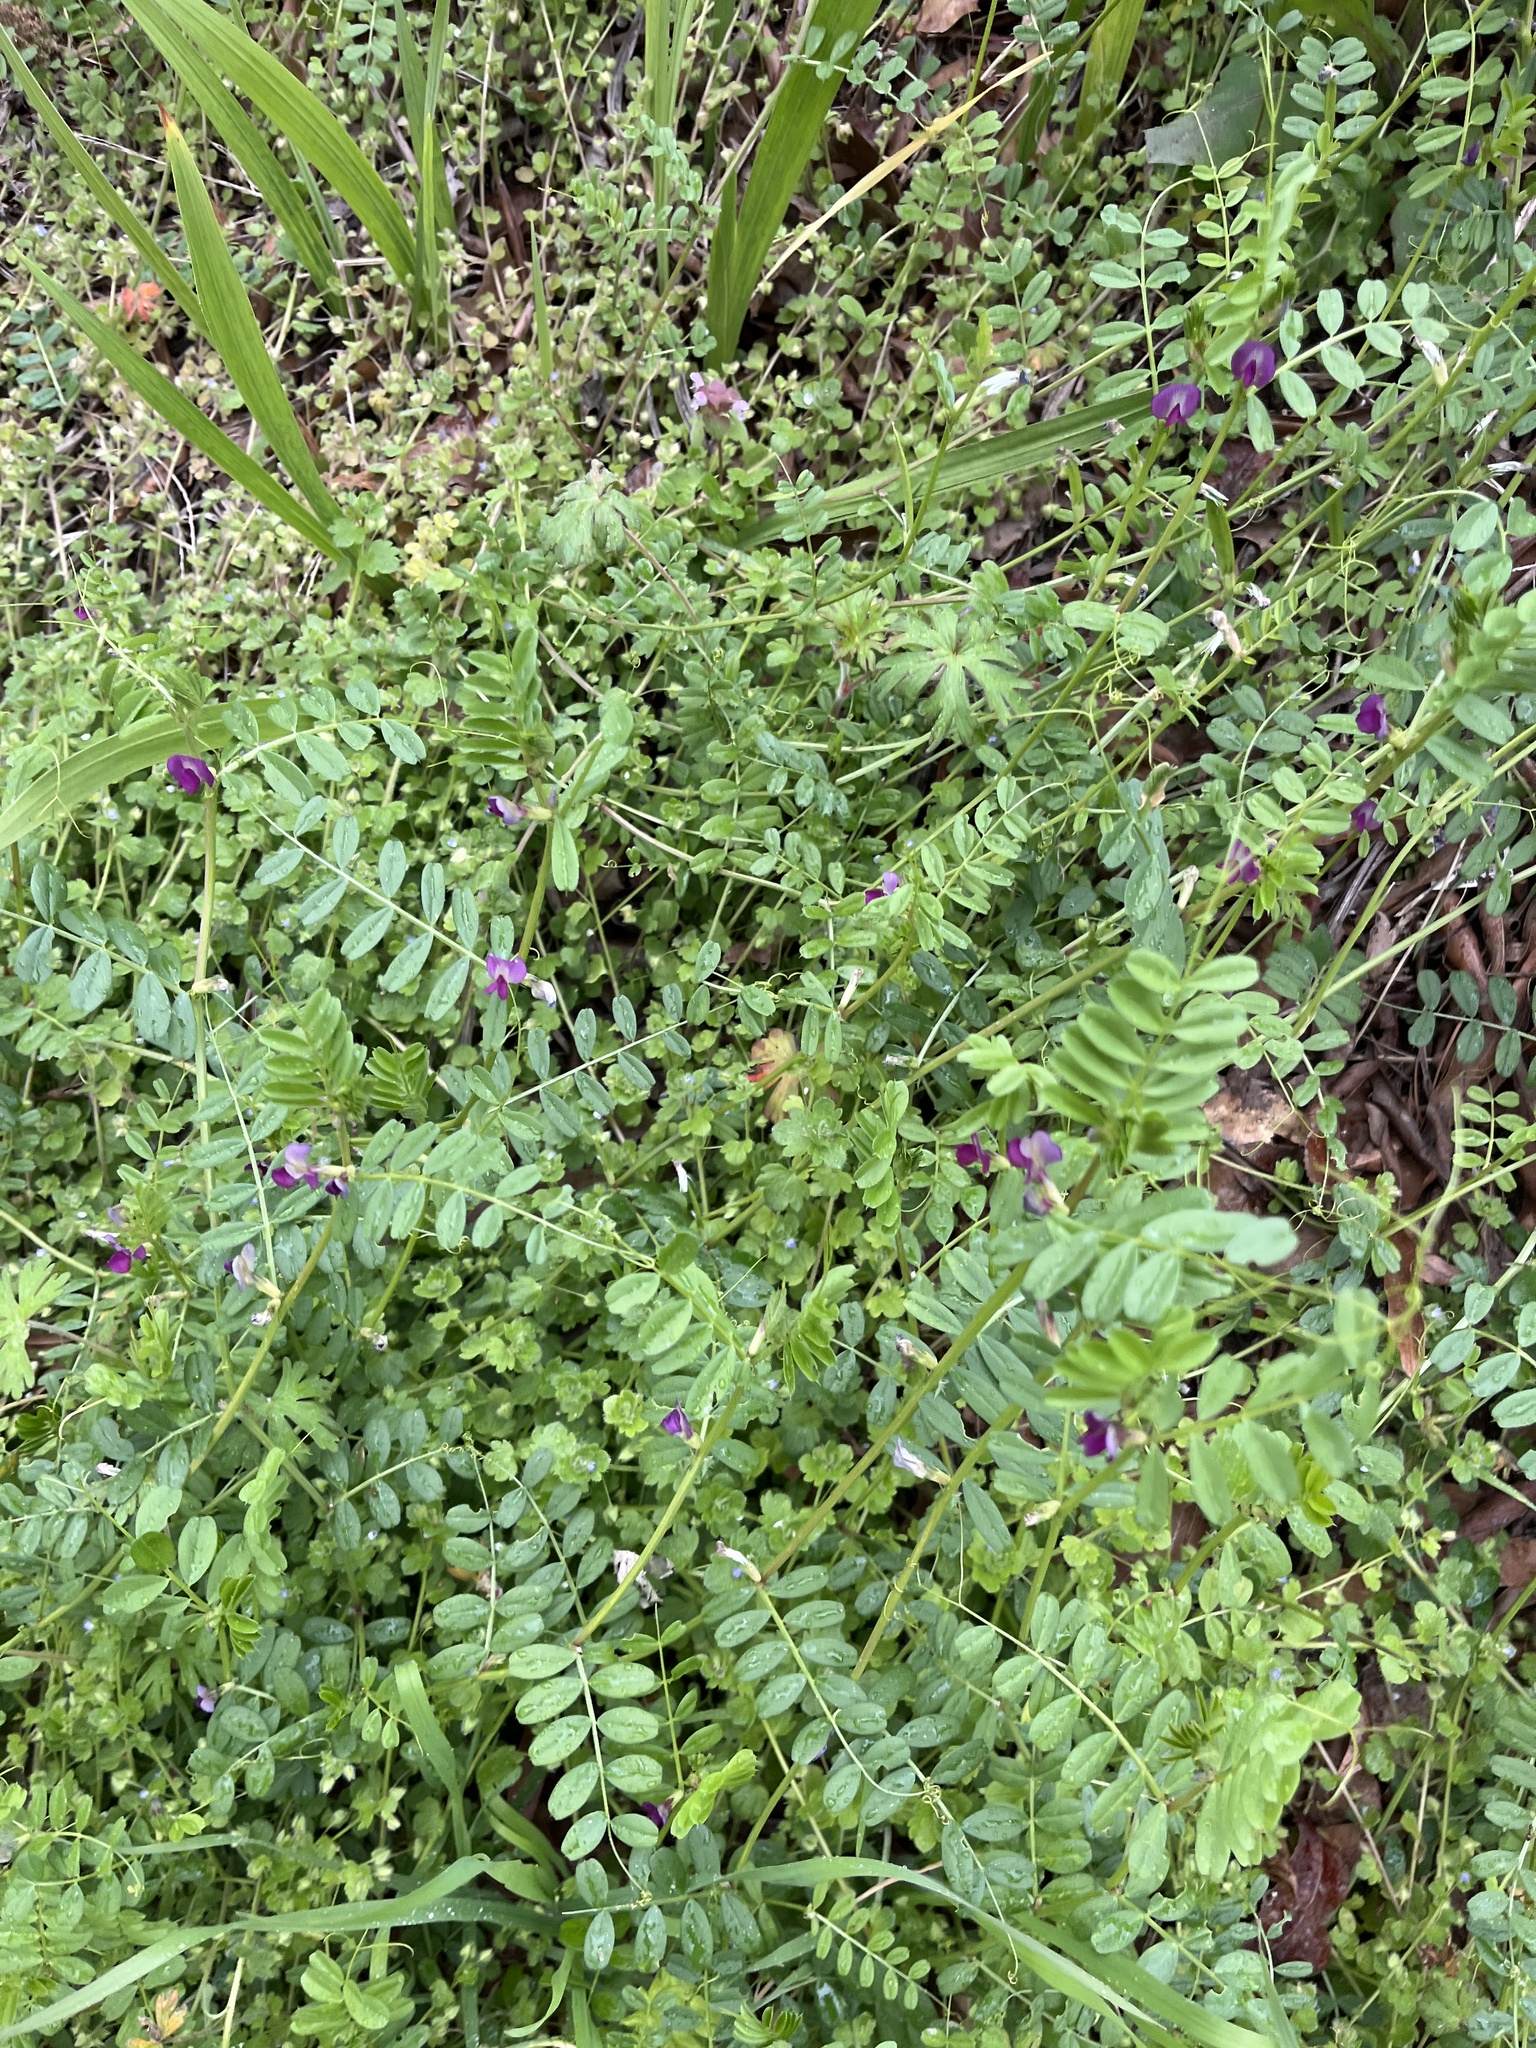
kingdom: Plantae
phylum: Tracheophyta
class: Magnoliopsida
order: Fabales
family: Fabaceae
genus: Vicia
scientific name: Vicia sativa
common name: Garden vetch
